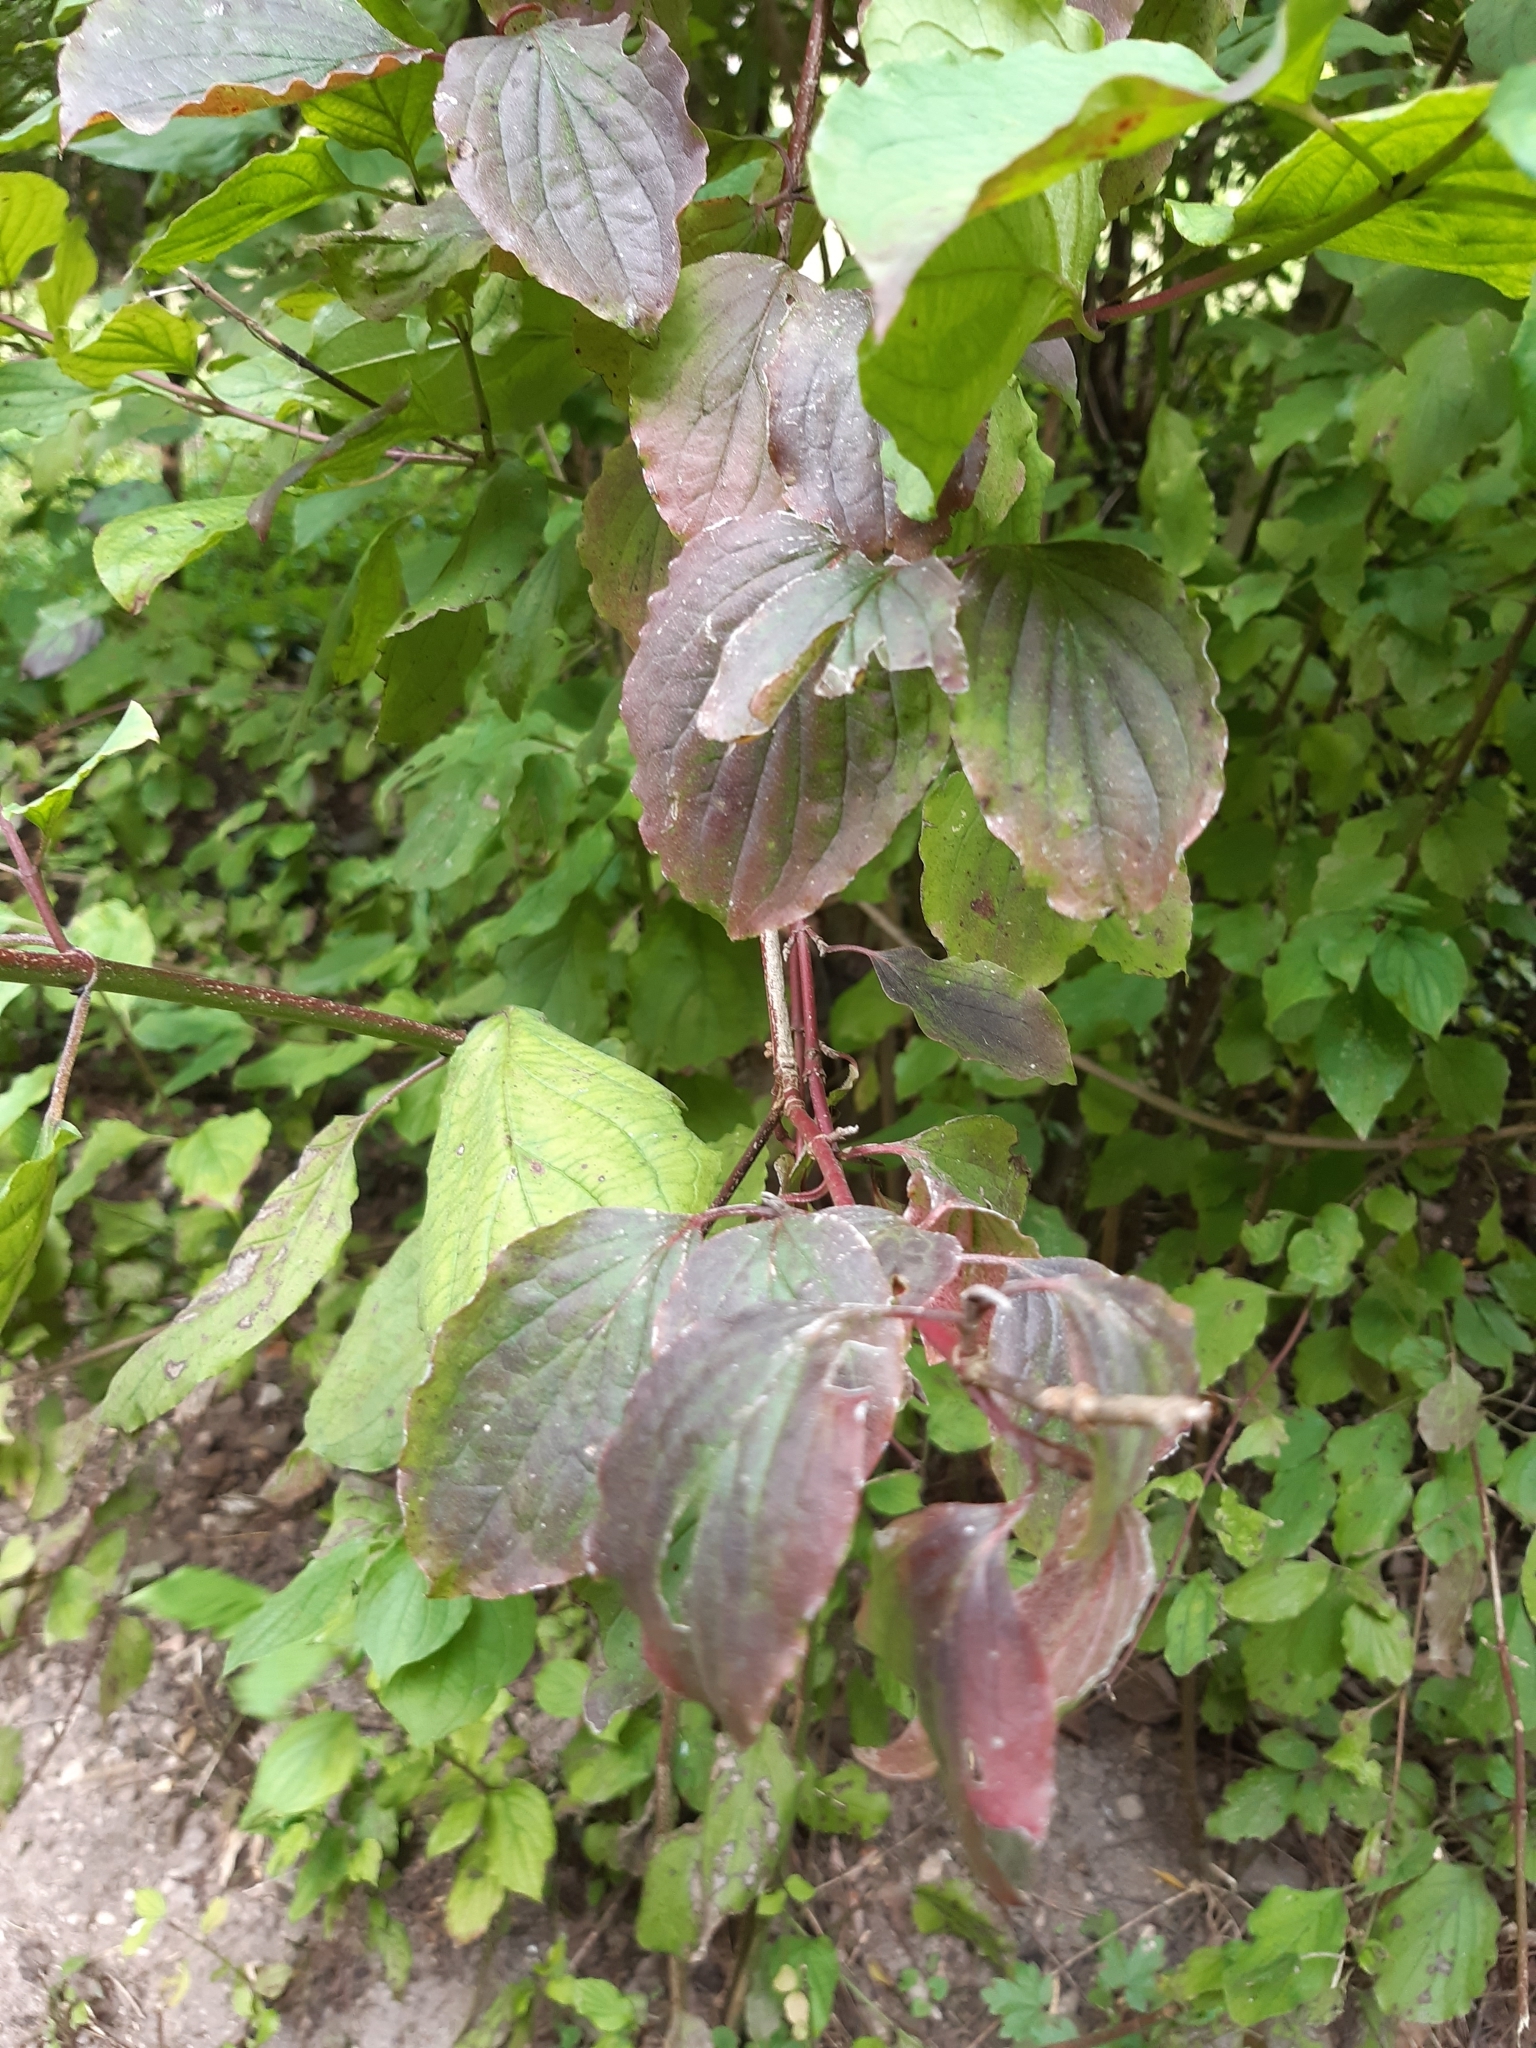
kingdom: Plantae
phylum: Tracheophyta
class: Magnoliopsida
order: Cornales
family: Cornaceae
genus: Cornus
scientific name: Cornus sanguinea
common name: Dogwood
